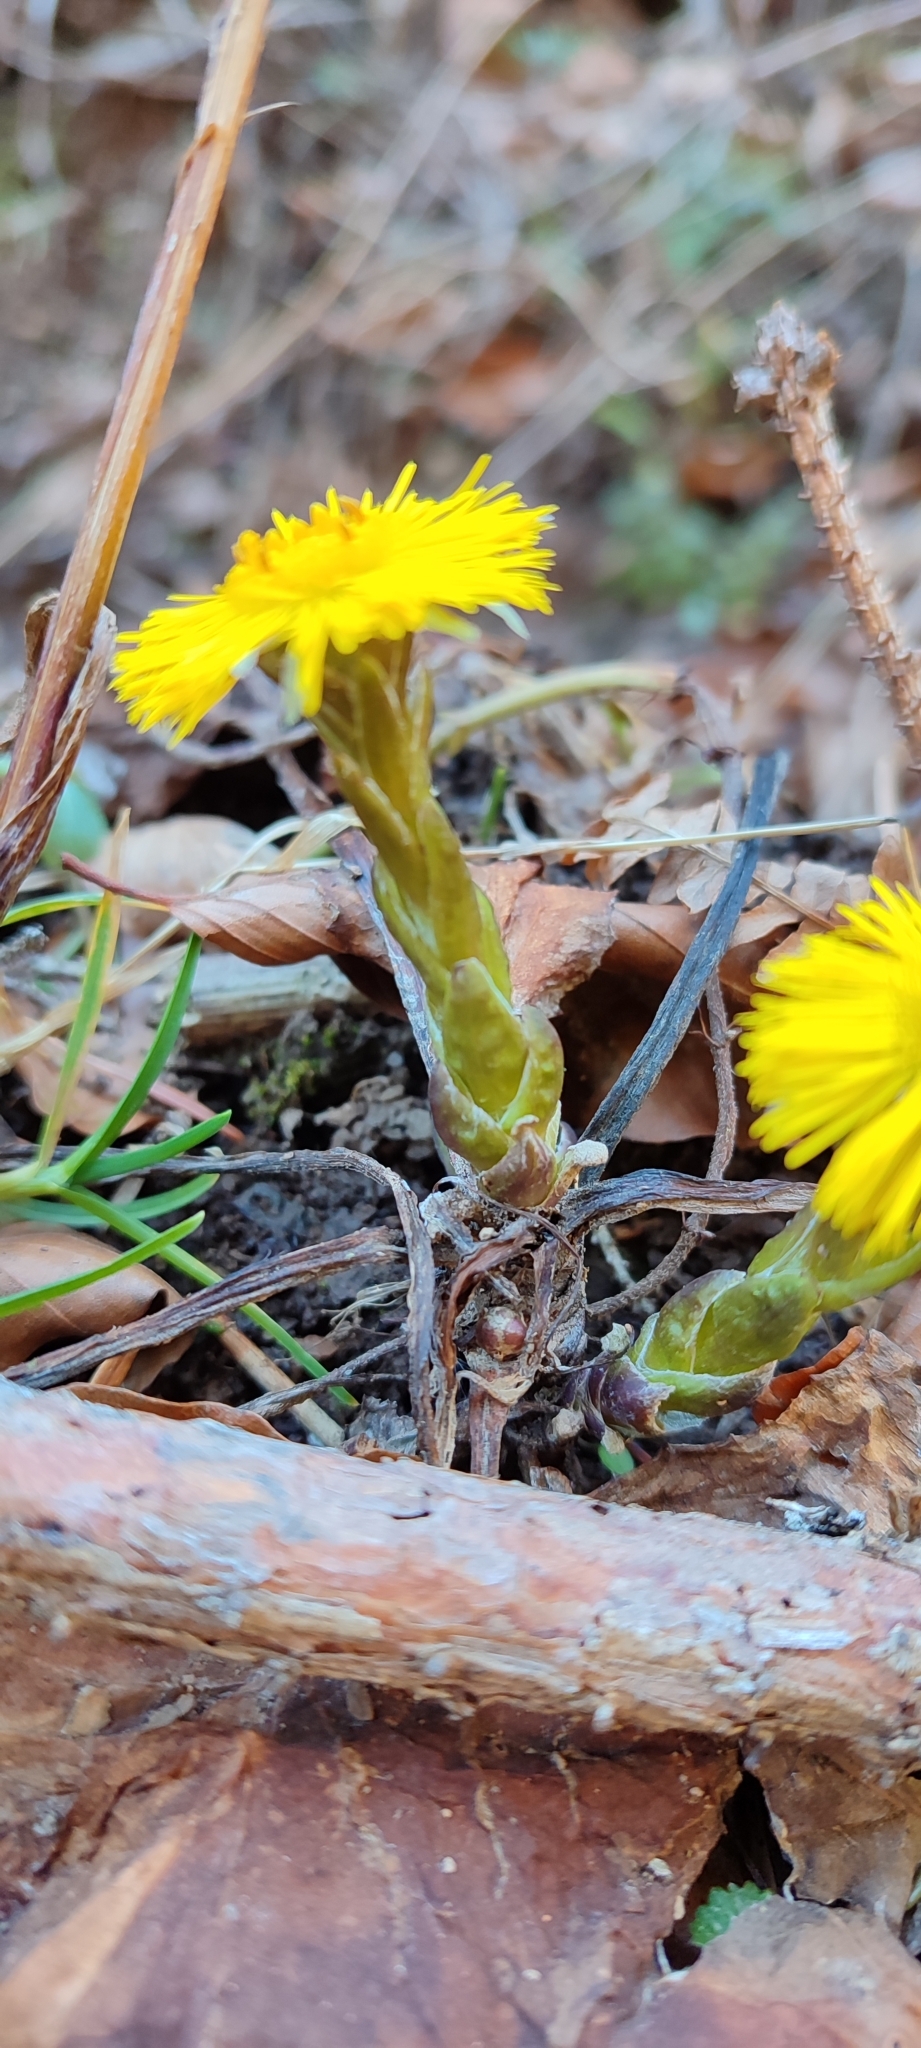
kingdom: Plantae
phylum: Tracheophyta
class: Magnoliopsida
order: Asterales
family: Asteraceae
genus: Tussilago
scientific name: Tussilago farfara
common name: Coltsfoot
